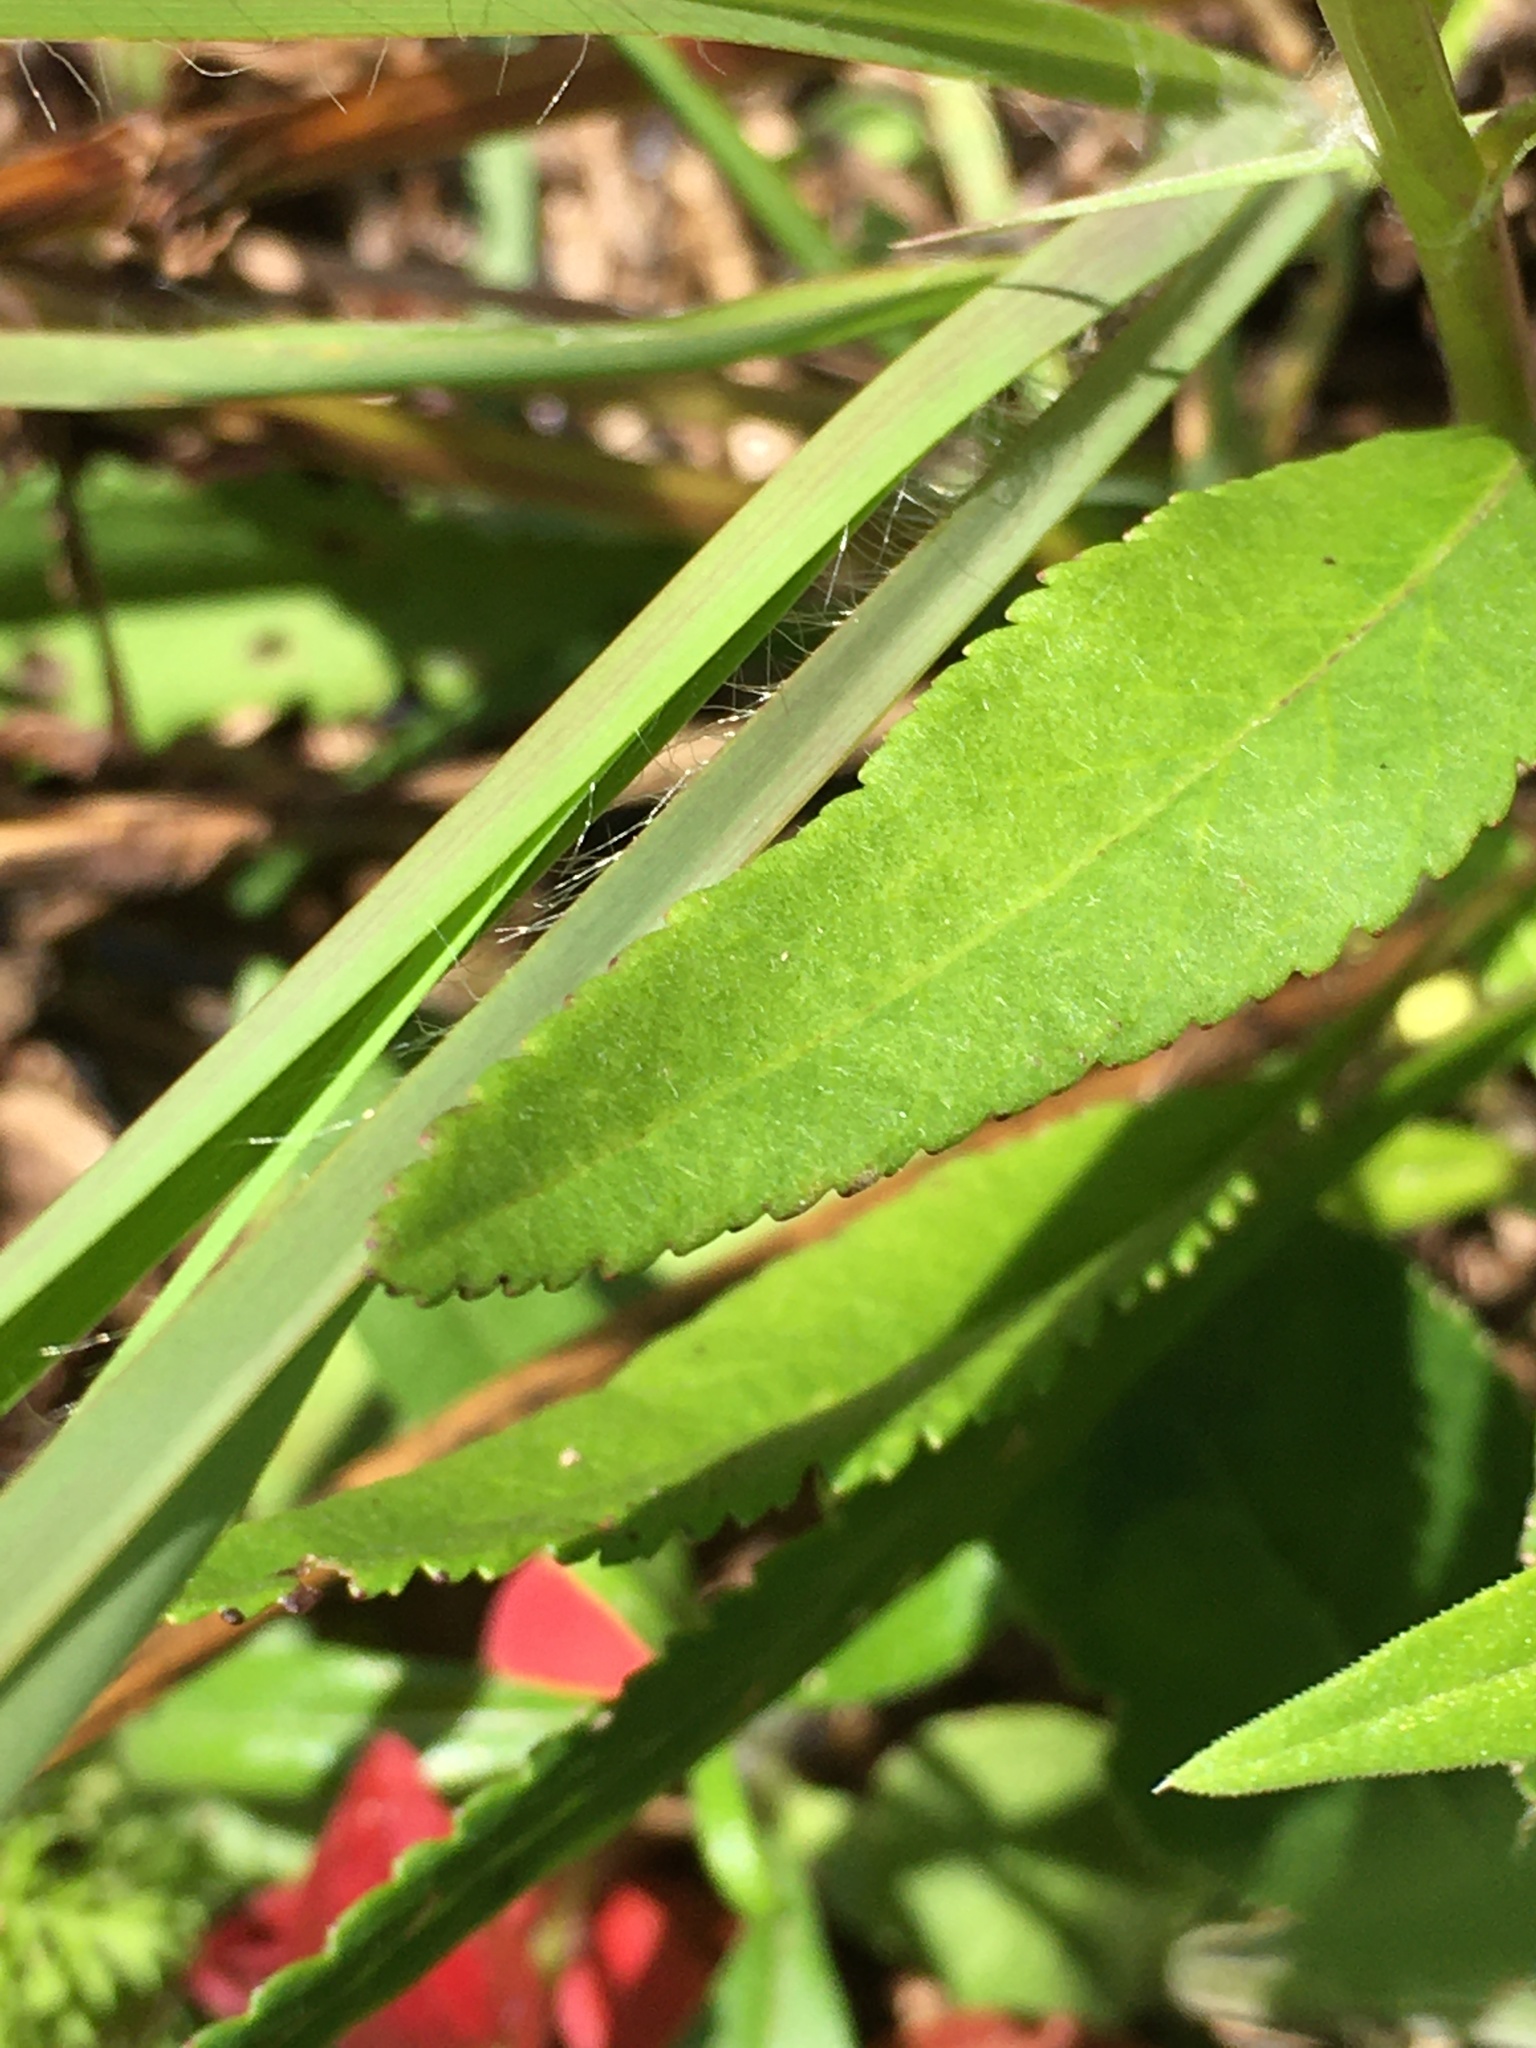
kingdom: Plantae
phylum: Tracheophyta
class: Magnoliopsida
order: Asterales
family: Asteraceae
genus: Packera
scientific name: Packera anonyma
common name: Small ragwort
